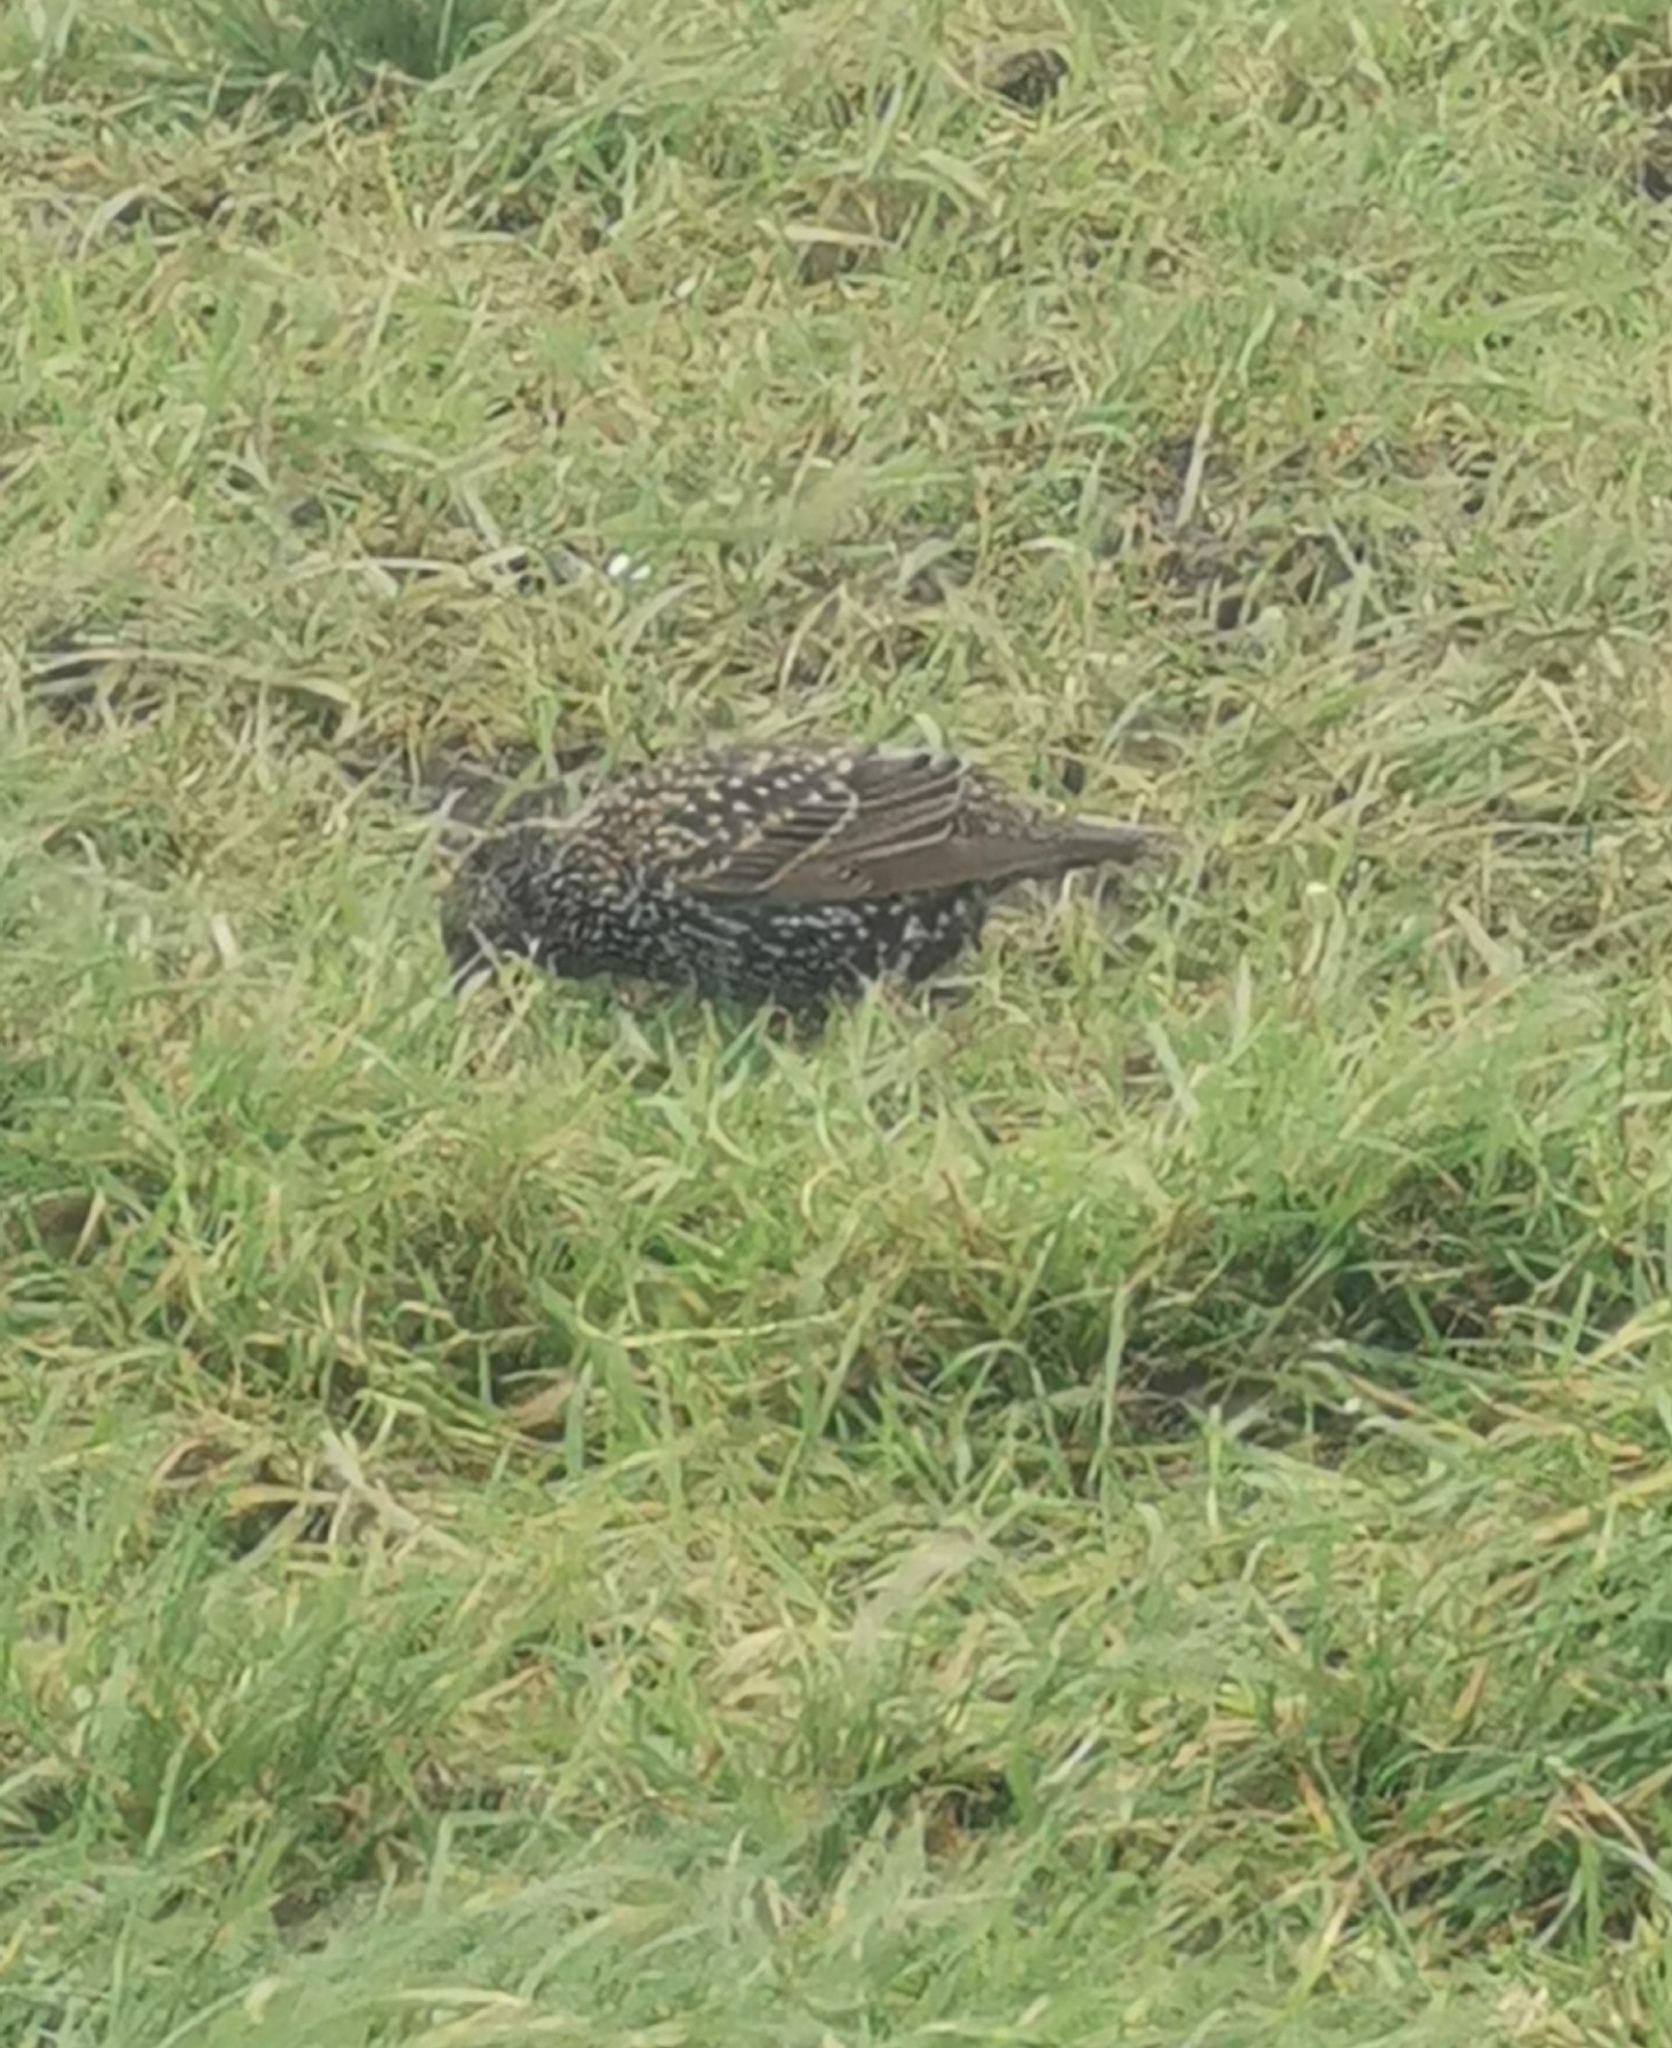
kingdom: Animalia
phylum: Chordata
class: Aves
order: Passeriformes
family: Sturnidae
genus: Sturnus
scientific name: Sturnus vulgaris
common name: Common starling
